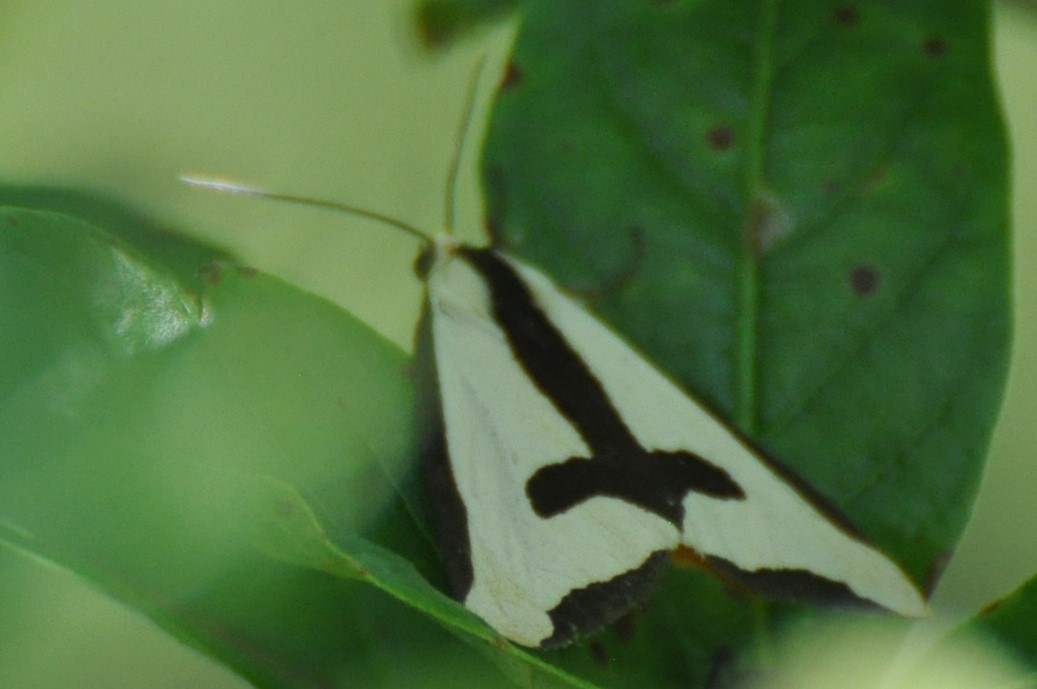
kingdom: Animalia
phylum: Arthropoda
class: Insecta
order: Lepidoptera
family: Erebidae
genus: Haploa
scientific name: Haploa clymene
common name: Clymene moth
